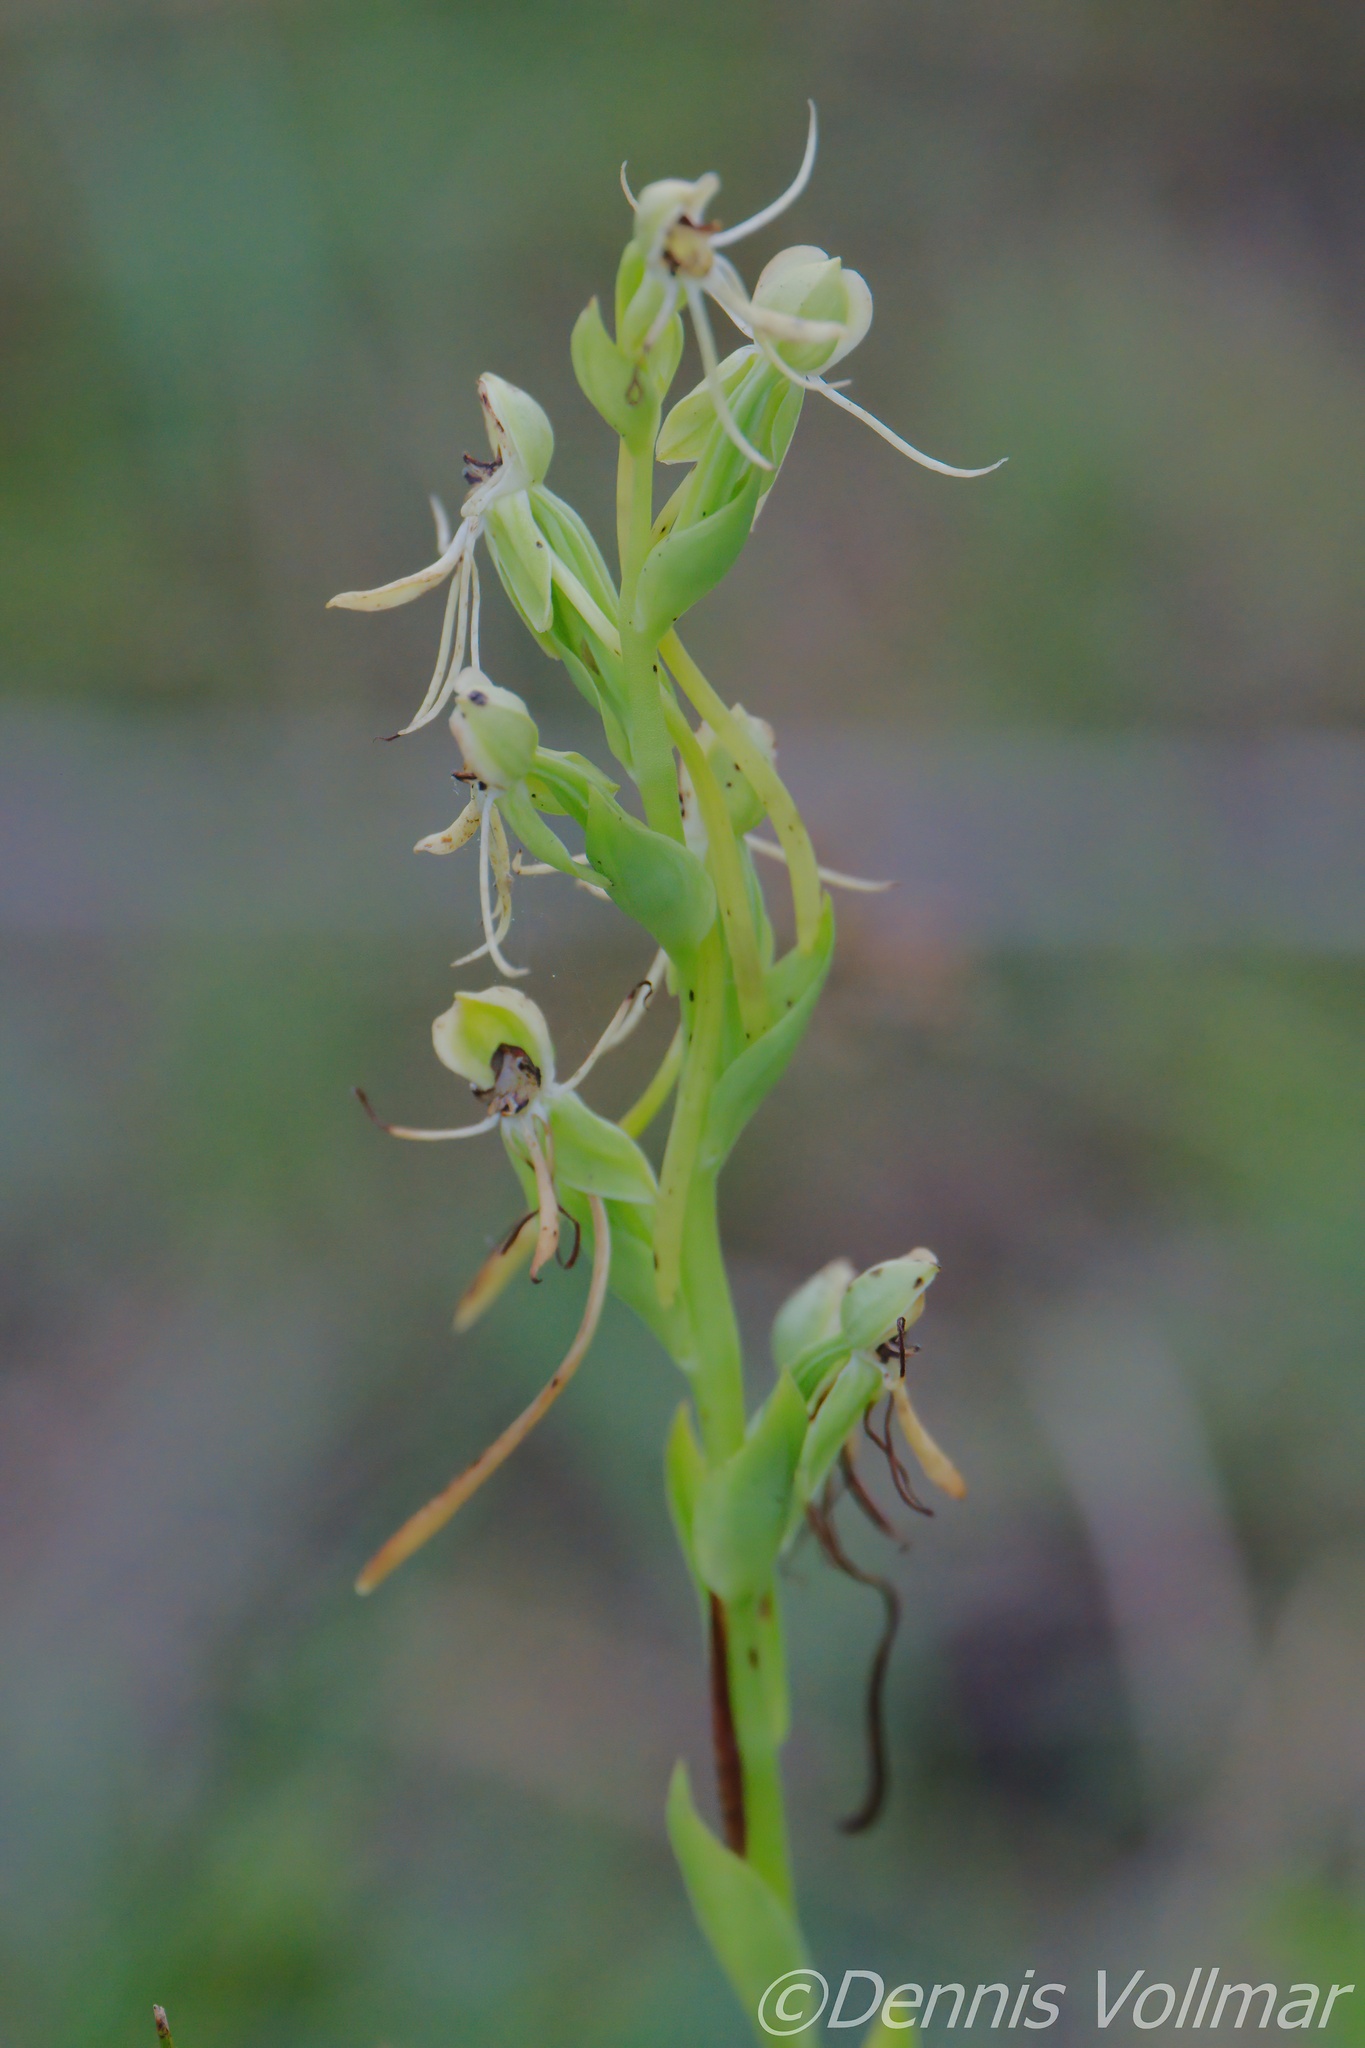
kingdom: Plantae
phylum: Tracheophyta
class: Liliopsida
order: Asparagales
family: Orchidaceae
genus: Habenaria
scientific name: Habenaria quinqueseta
